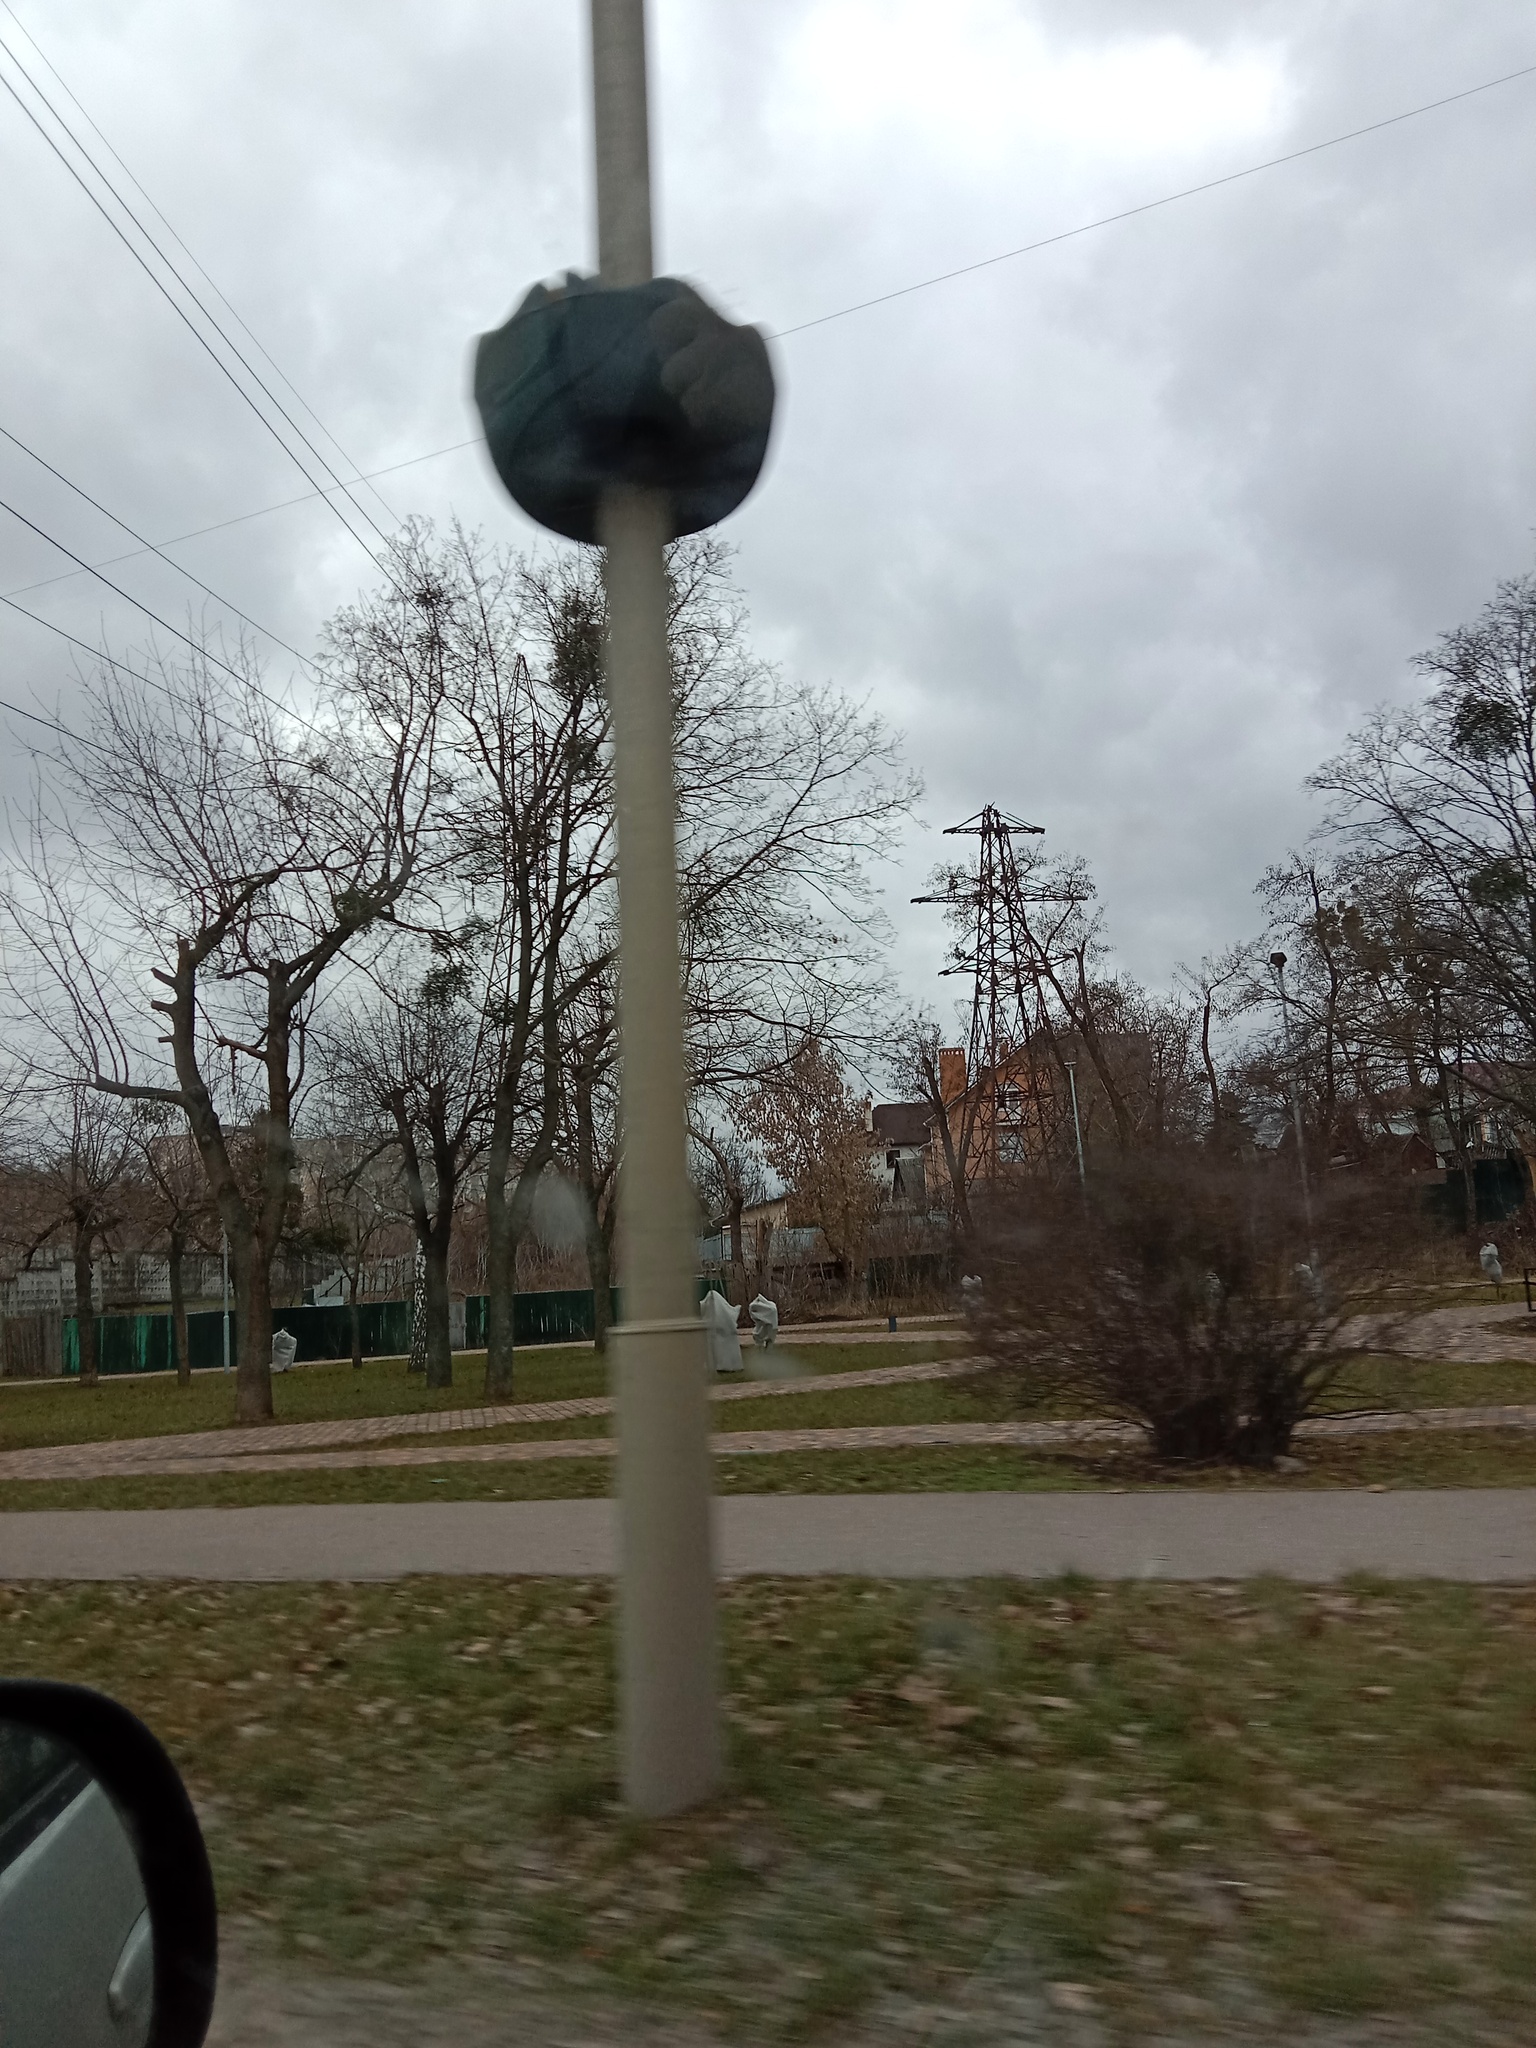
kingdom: Plantae
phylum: Tracheophyta
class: Magnoliopsida
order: Santalales
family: Viscaceae
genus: Viscum
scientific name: Viscum album
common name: Mistletoe
